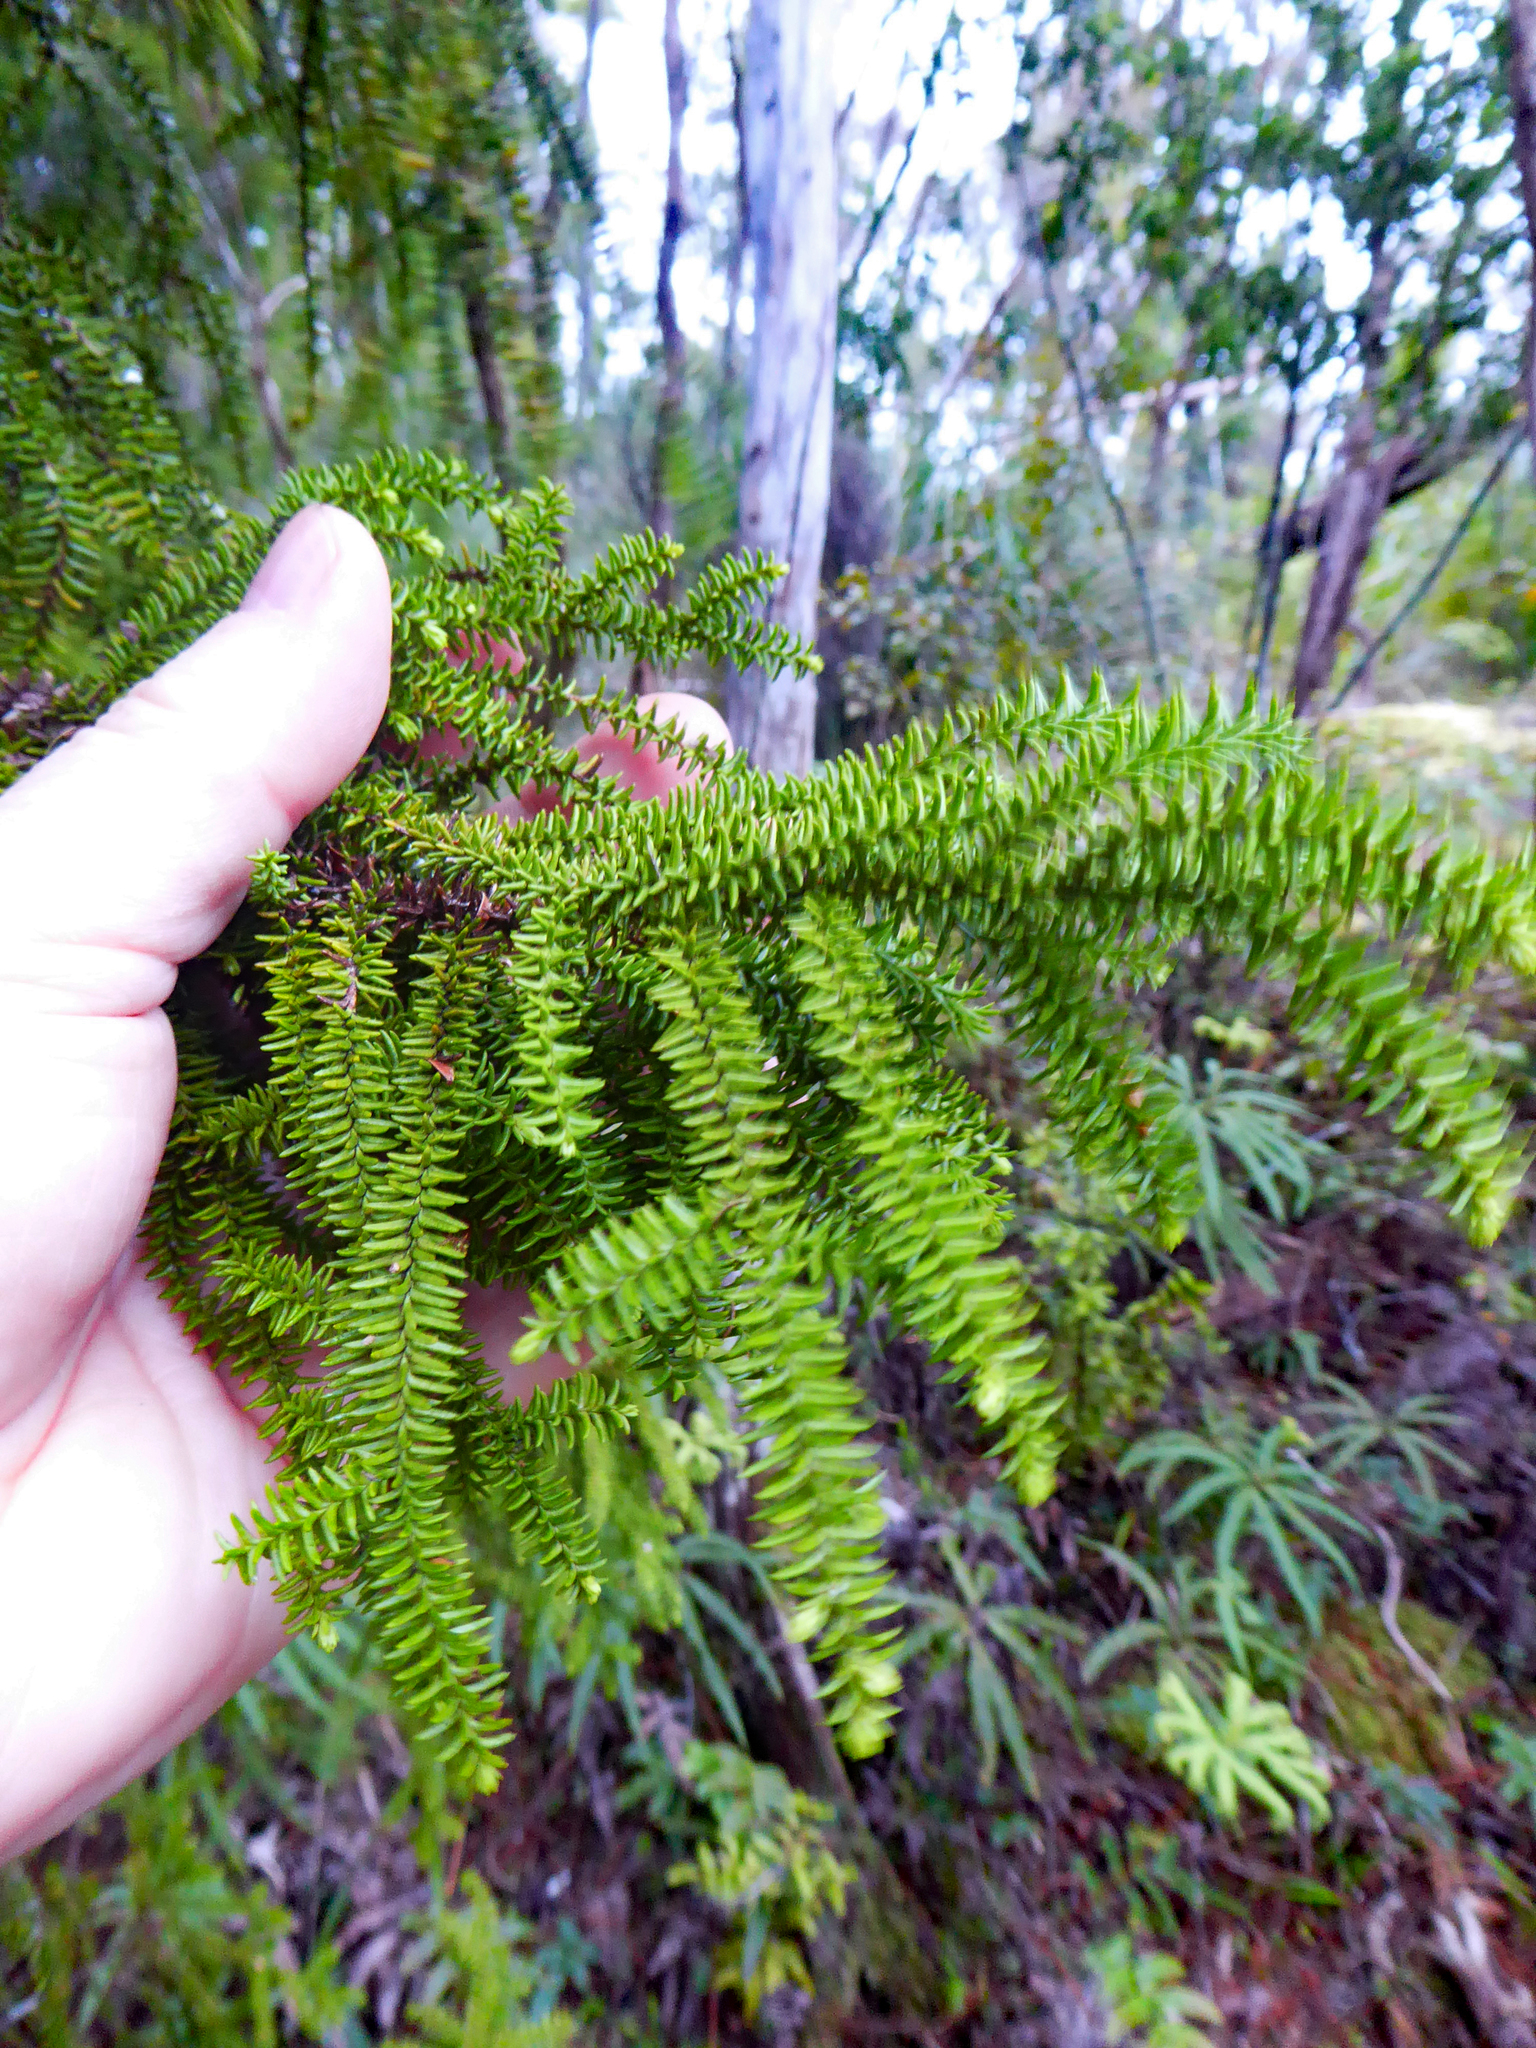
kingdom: Plantae
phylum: Tracheophyta
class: Pinopsida
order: Pinales
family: Podocarpaceae
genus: Lepidothamnus
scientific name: Lepidothamnus intermedius
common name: Yellow silver pine
